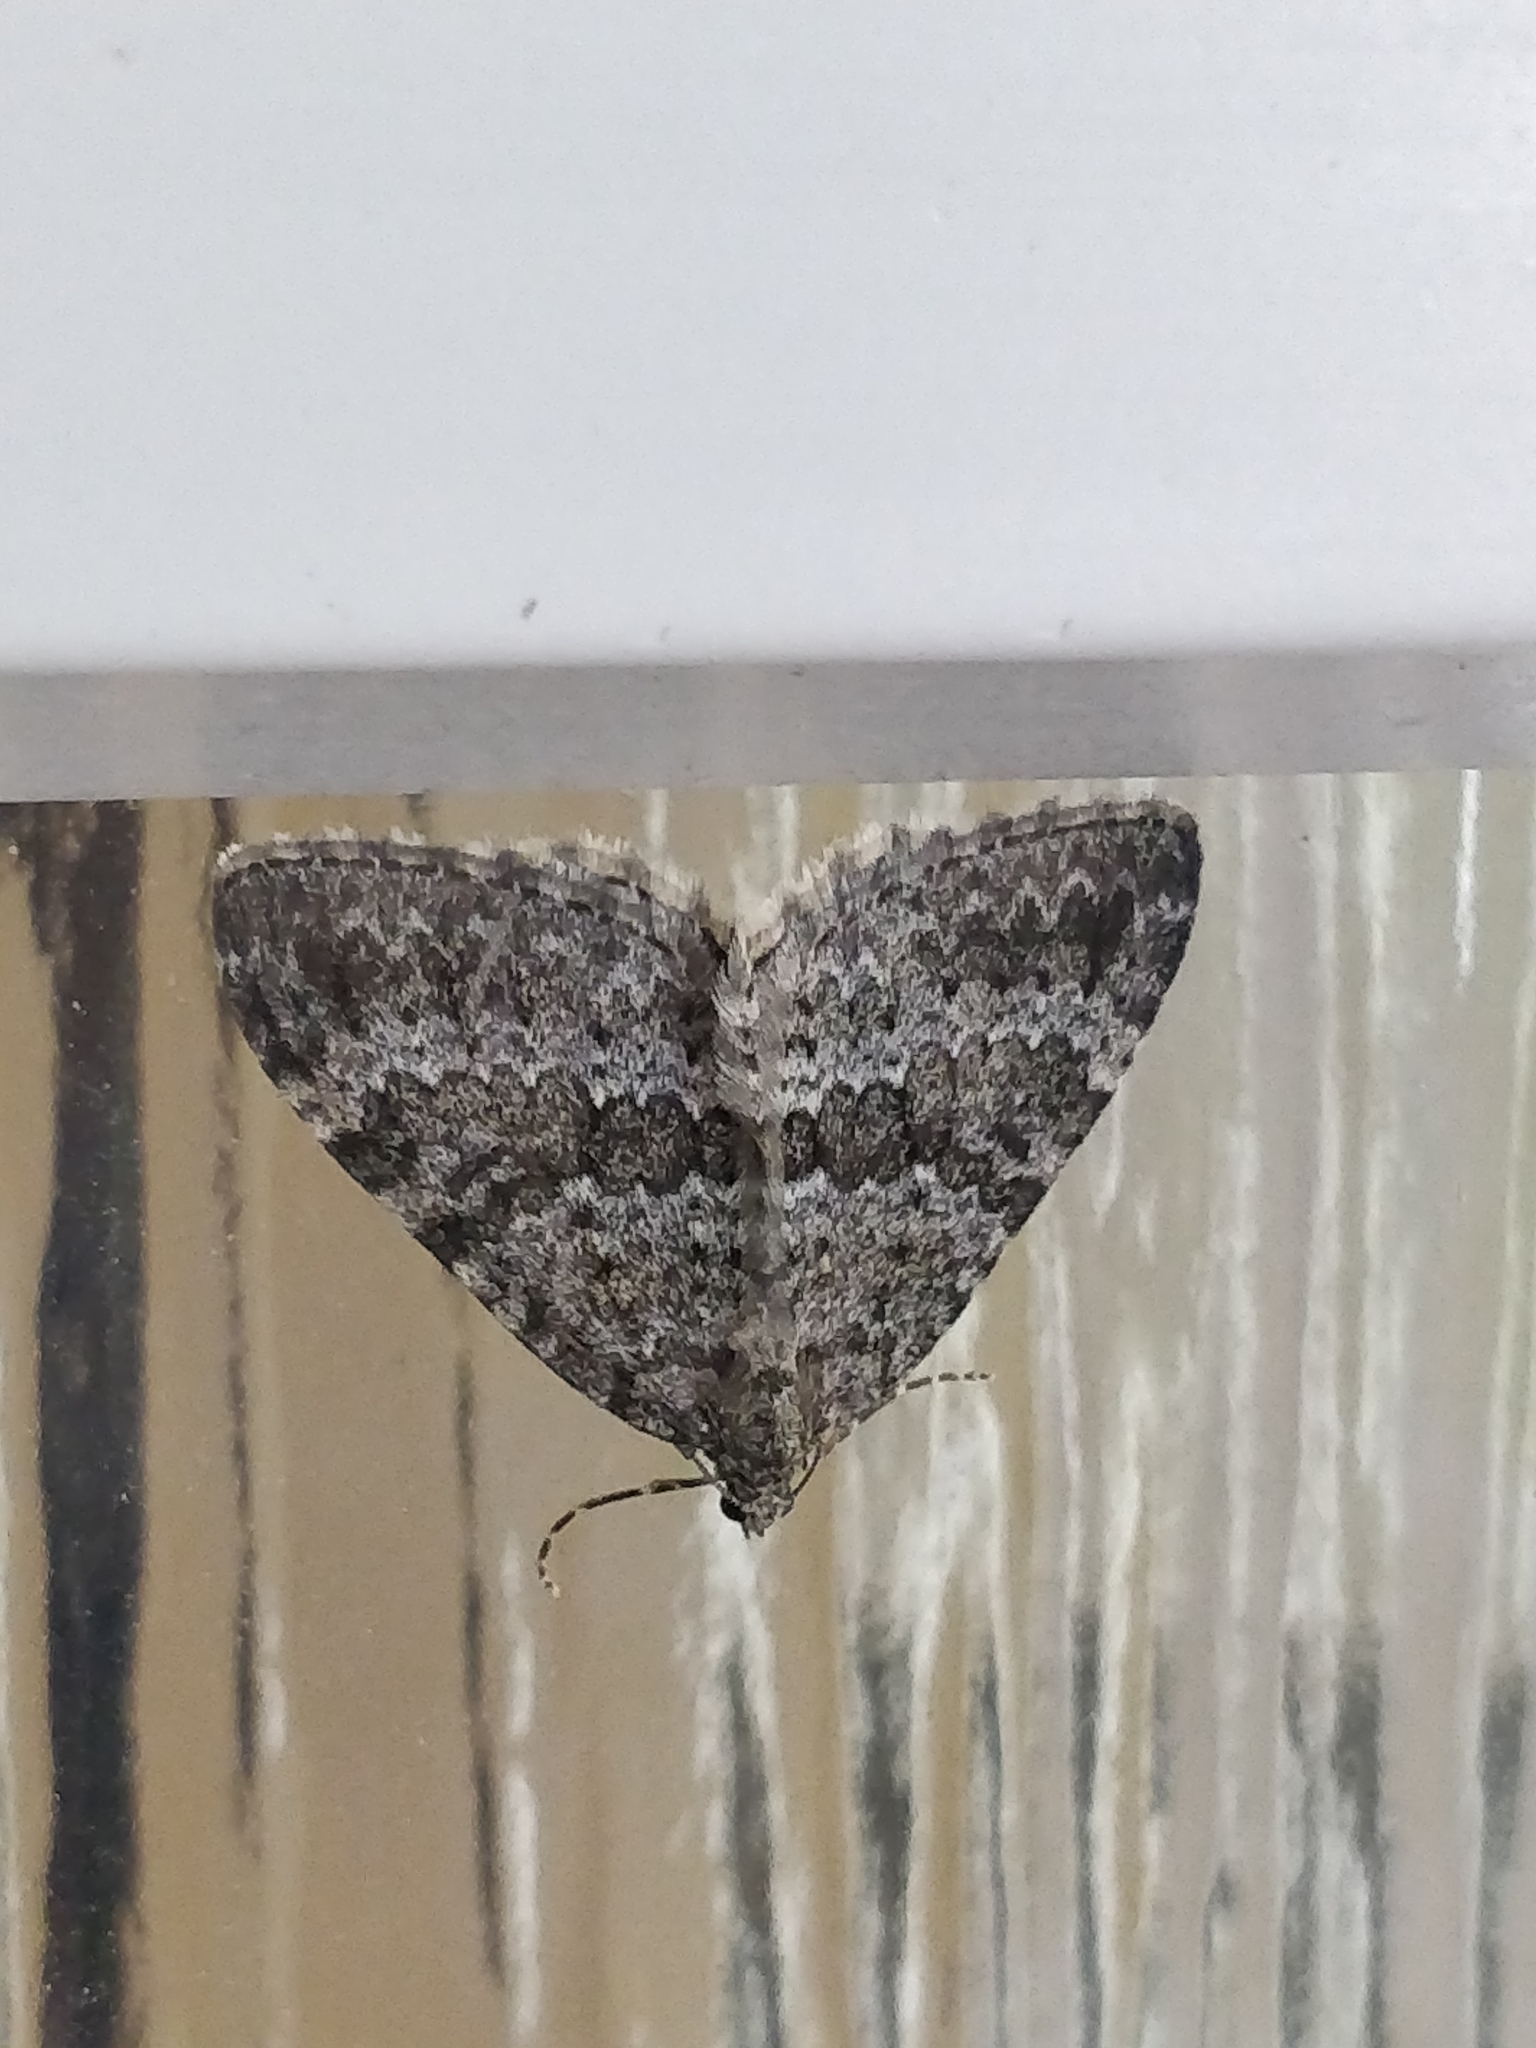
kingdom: Animalia
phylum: Arthropoda
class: Insecta
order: Lepidoptera
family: Geometridae
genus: Entephria
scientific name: Entephria caesiata
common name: Grey mountain moth
